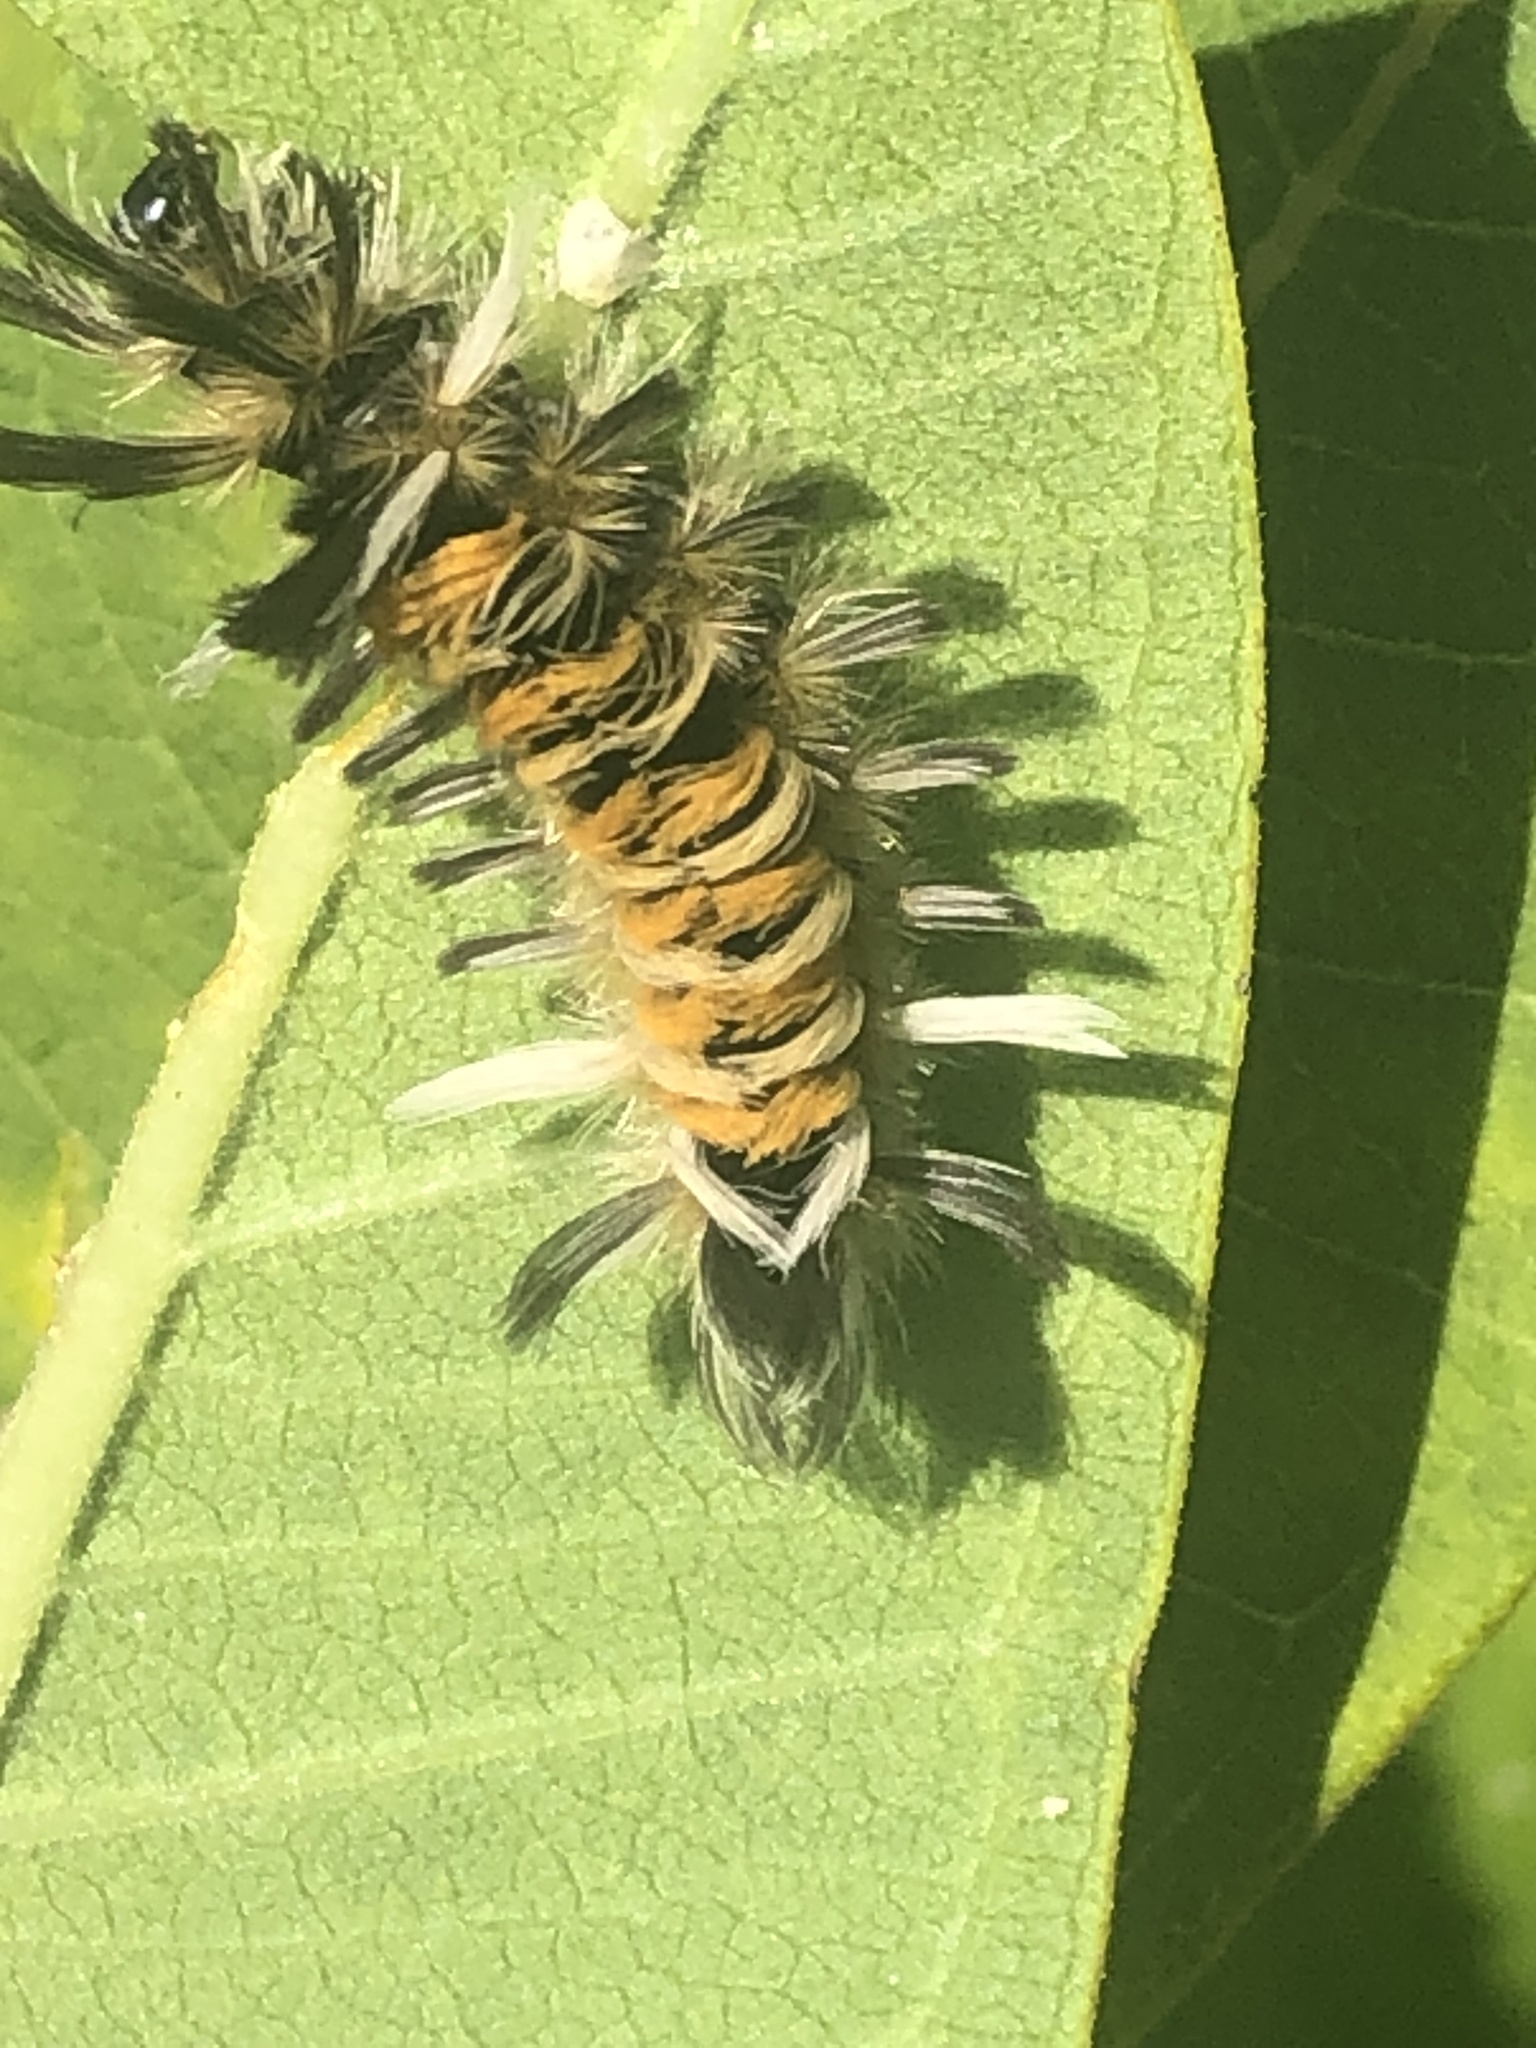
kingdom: Animalia
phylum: Arthropoda
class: Insecta
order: Lepidoptera
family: Erebidae
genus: Euchaetes
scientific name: Euchaetes egle
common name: Milkweed tussock moth
